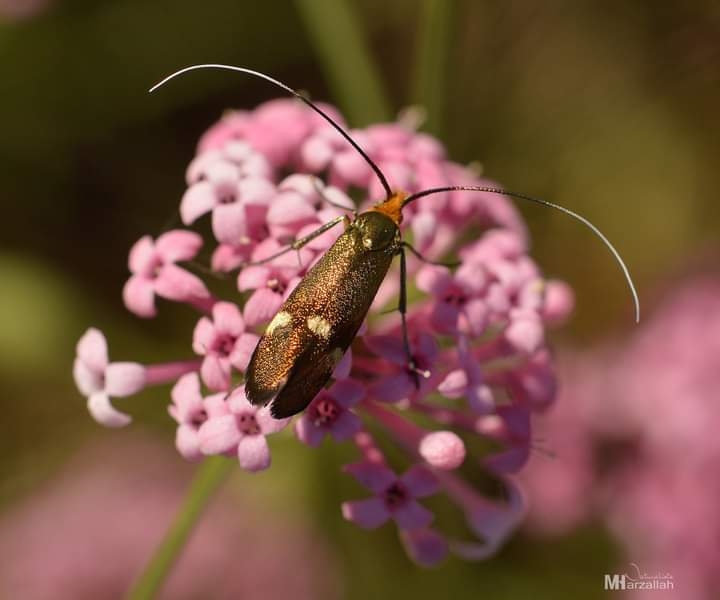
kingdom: Animalia
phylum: Arthropoda
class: Insecta
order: Lepidoptera
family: Adelidae
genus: Nemophora
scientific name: Nemophora raddaella
